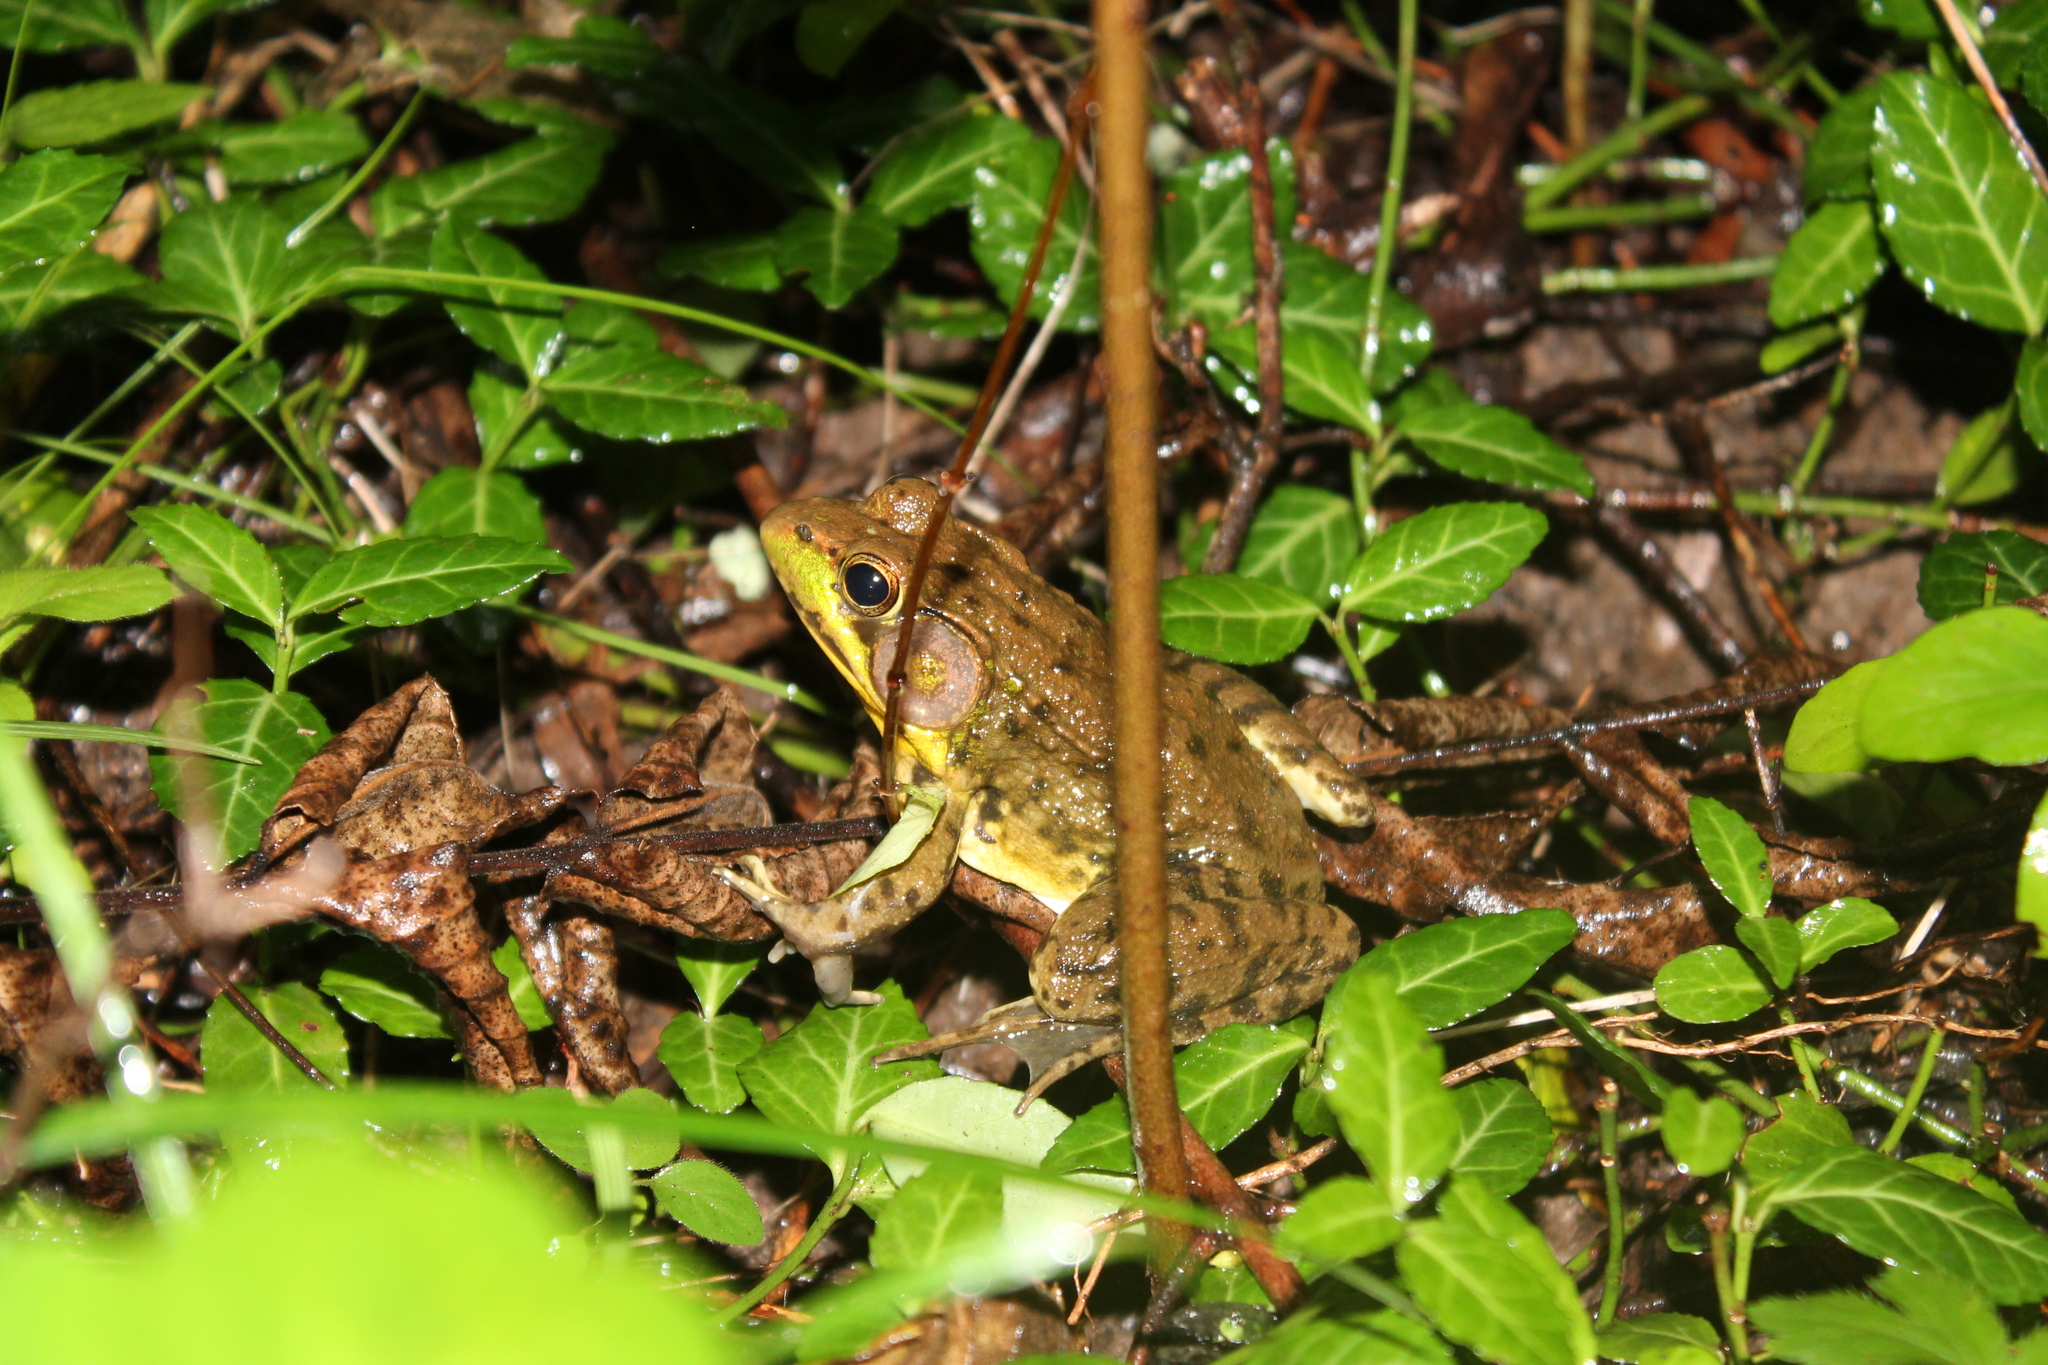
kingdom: Animalia
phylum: Chordata
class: Amphibia
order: Anura
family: Ranidae
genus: Lithobates
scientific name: Lithobates clamitans
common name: Green frog
